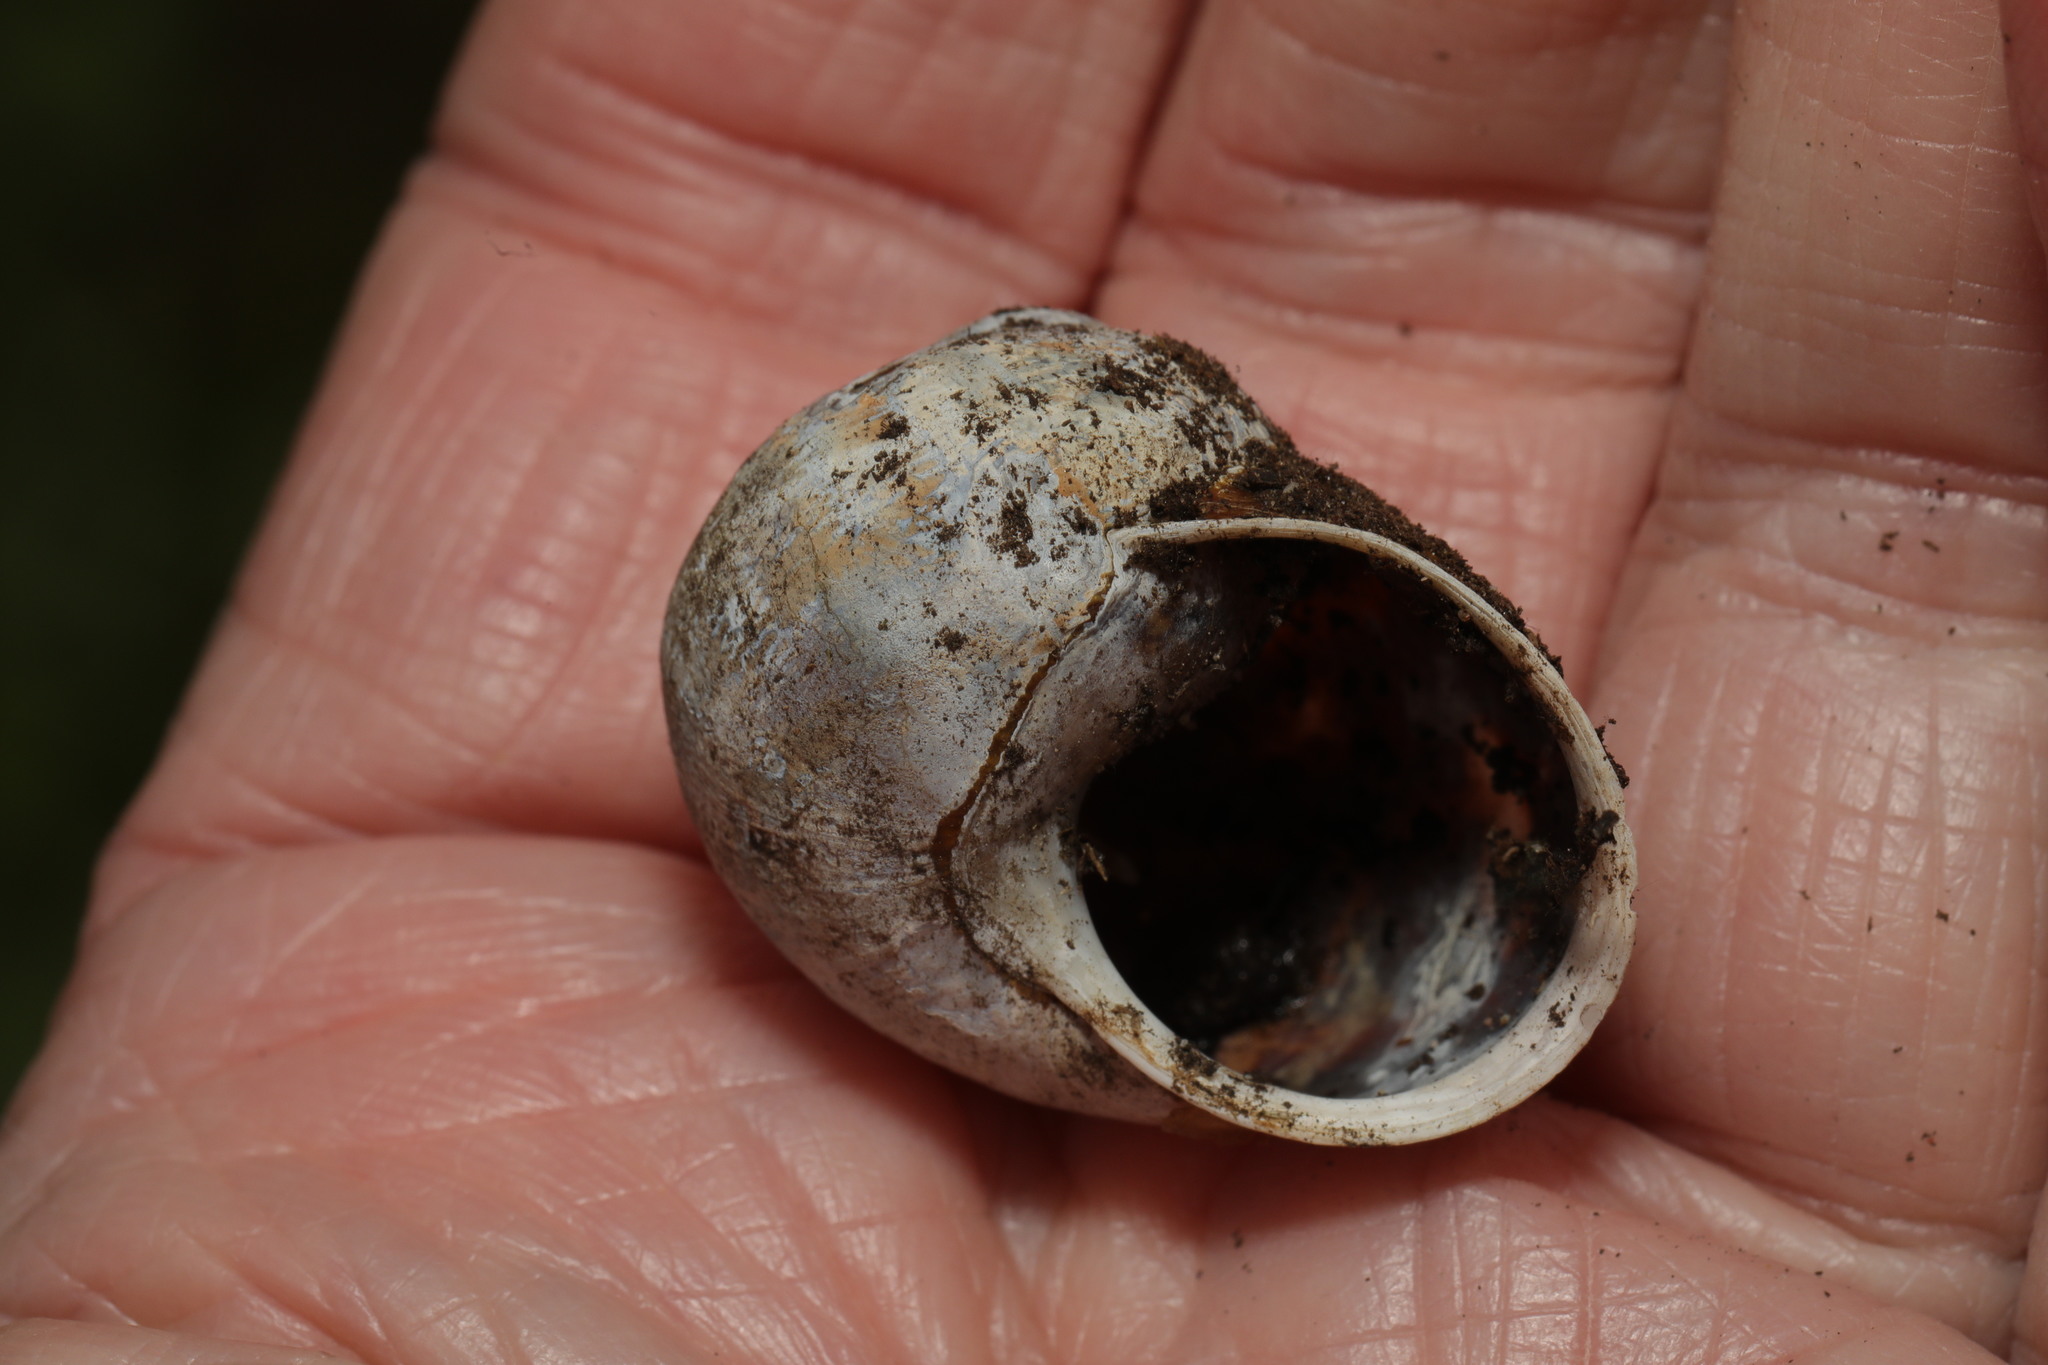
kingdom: Animalia
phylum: Mollusca
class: Gastropoda
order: Stylommatophora
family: Helicidae
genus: Cornu
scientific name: Cornu aspersum
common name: Brown garden snail
